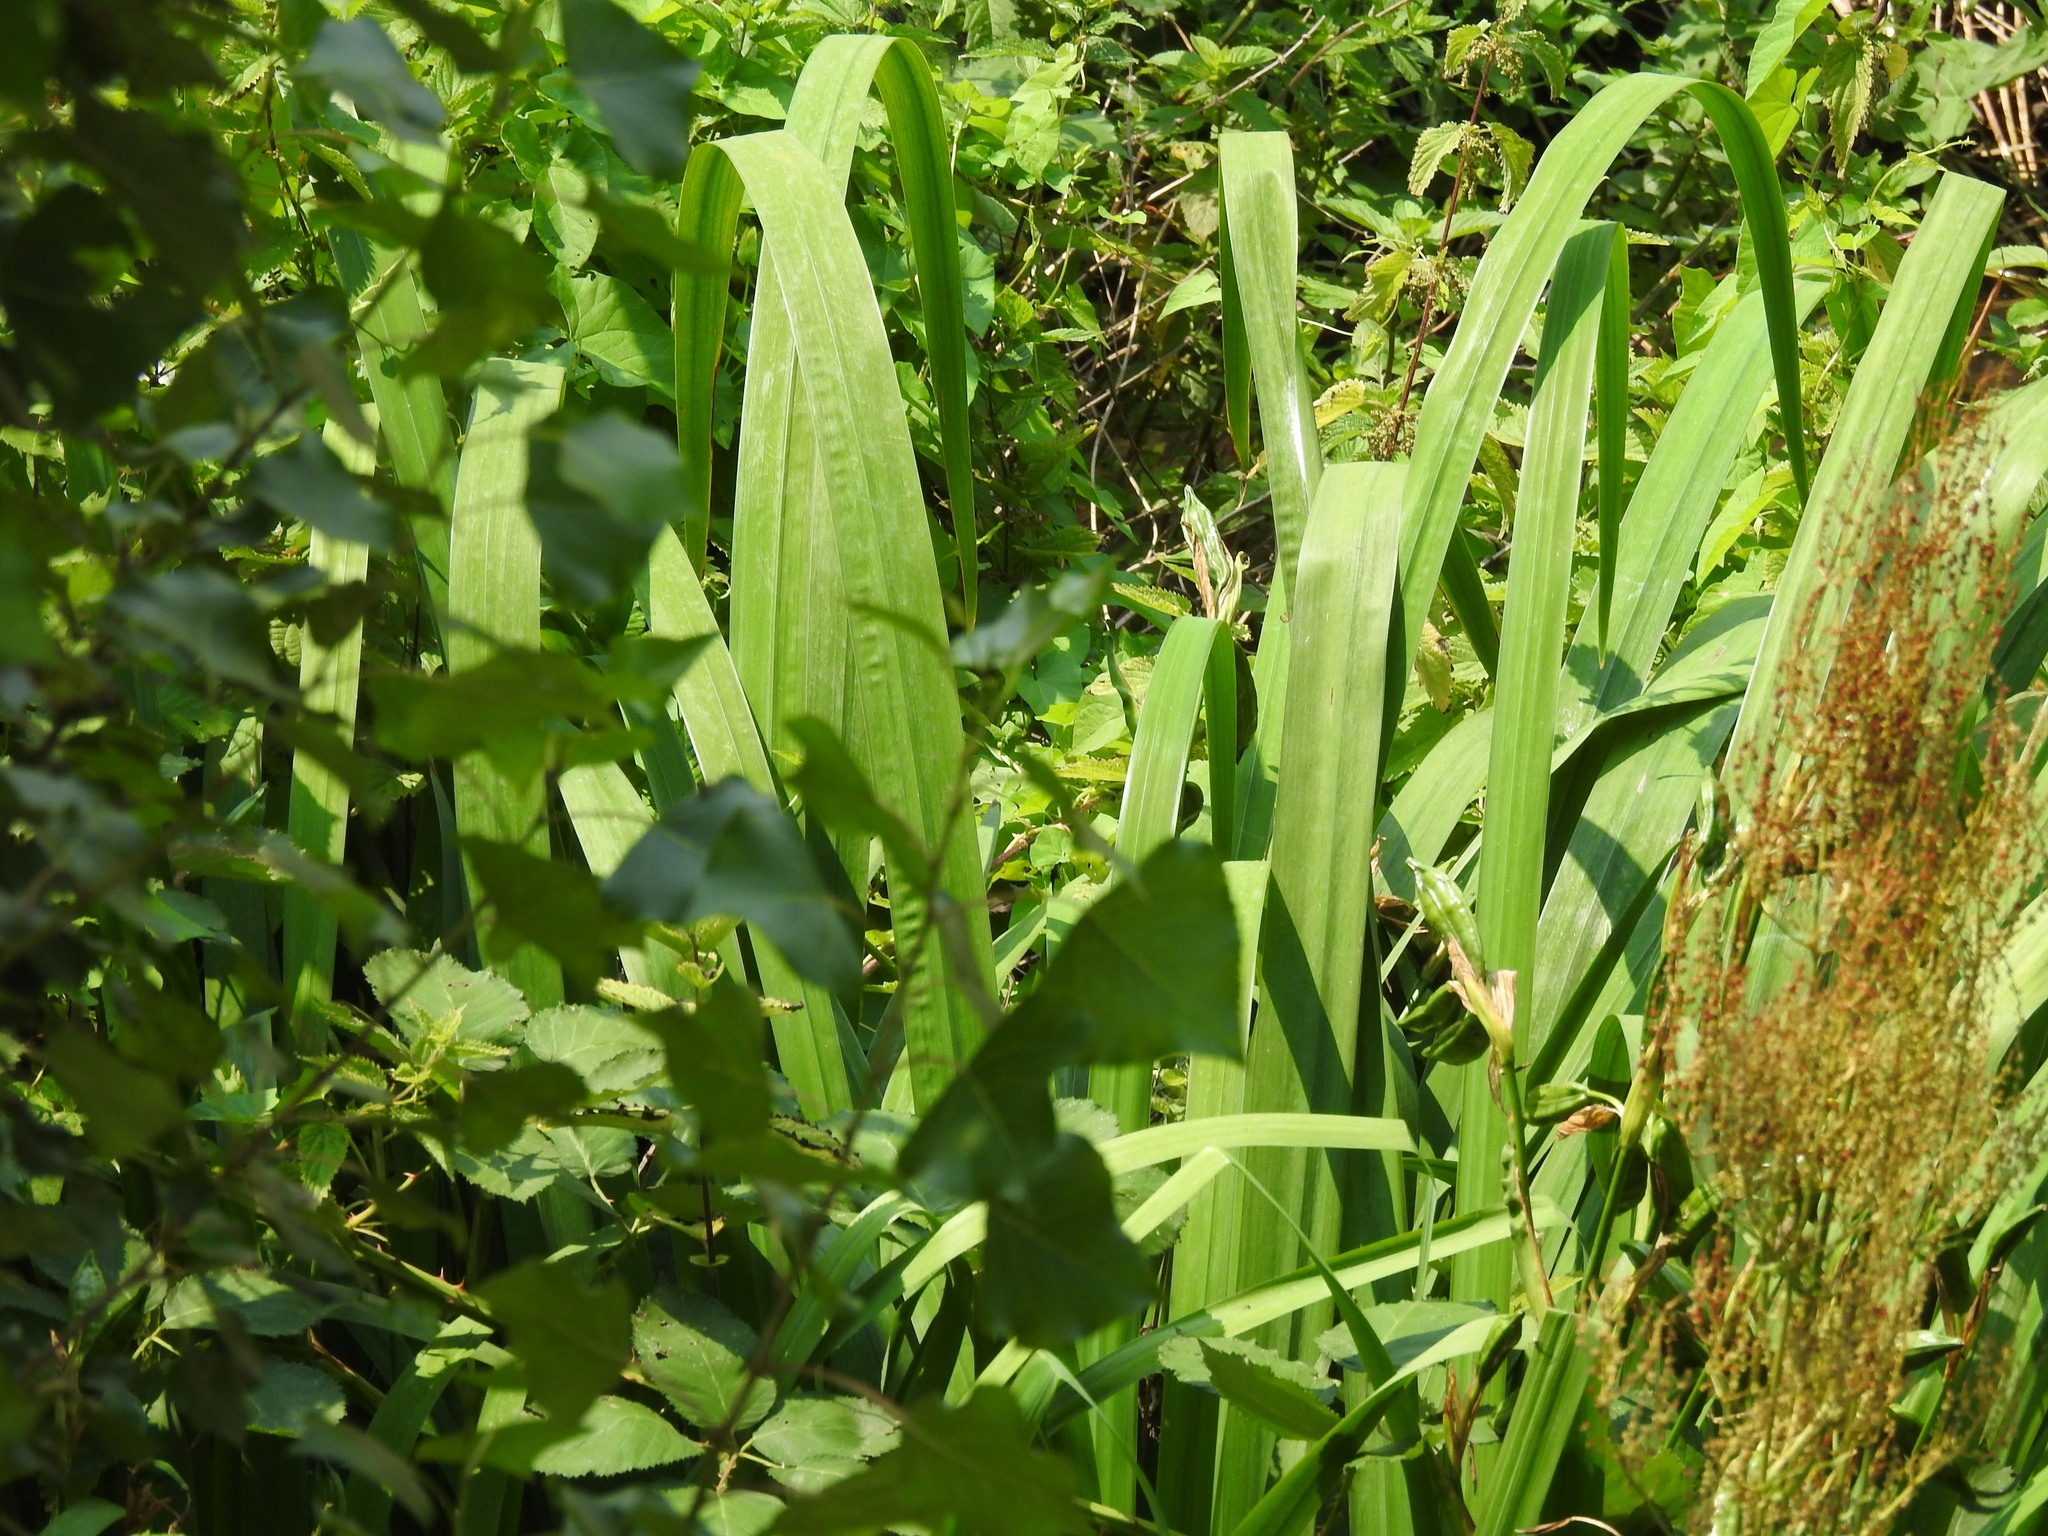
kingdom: Plantae
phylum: Tracheophyta
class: Liliopsida
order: Asparagales
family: Iridaceae
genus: Iris
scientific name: Iris pseudacorus
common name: Yellow flag
